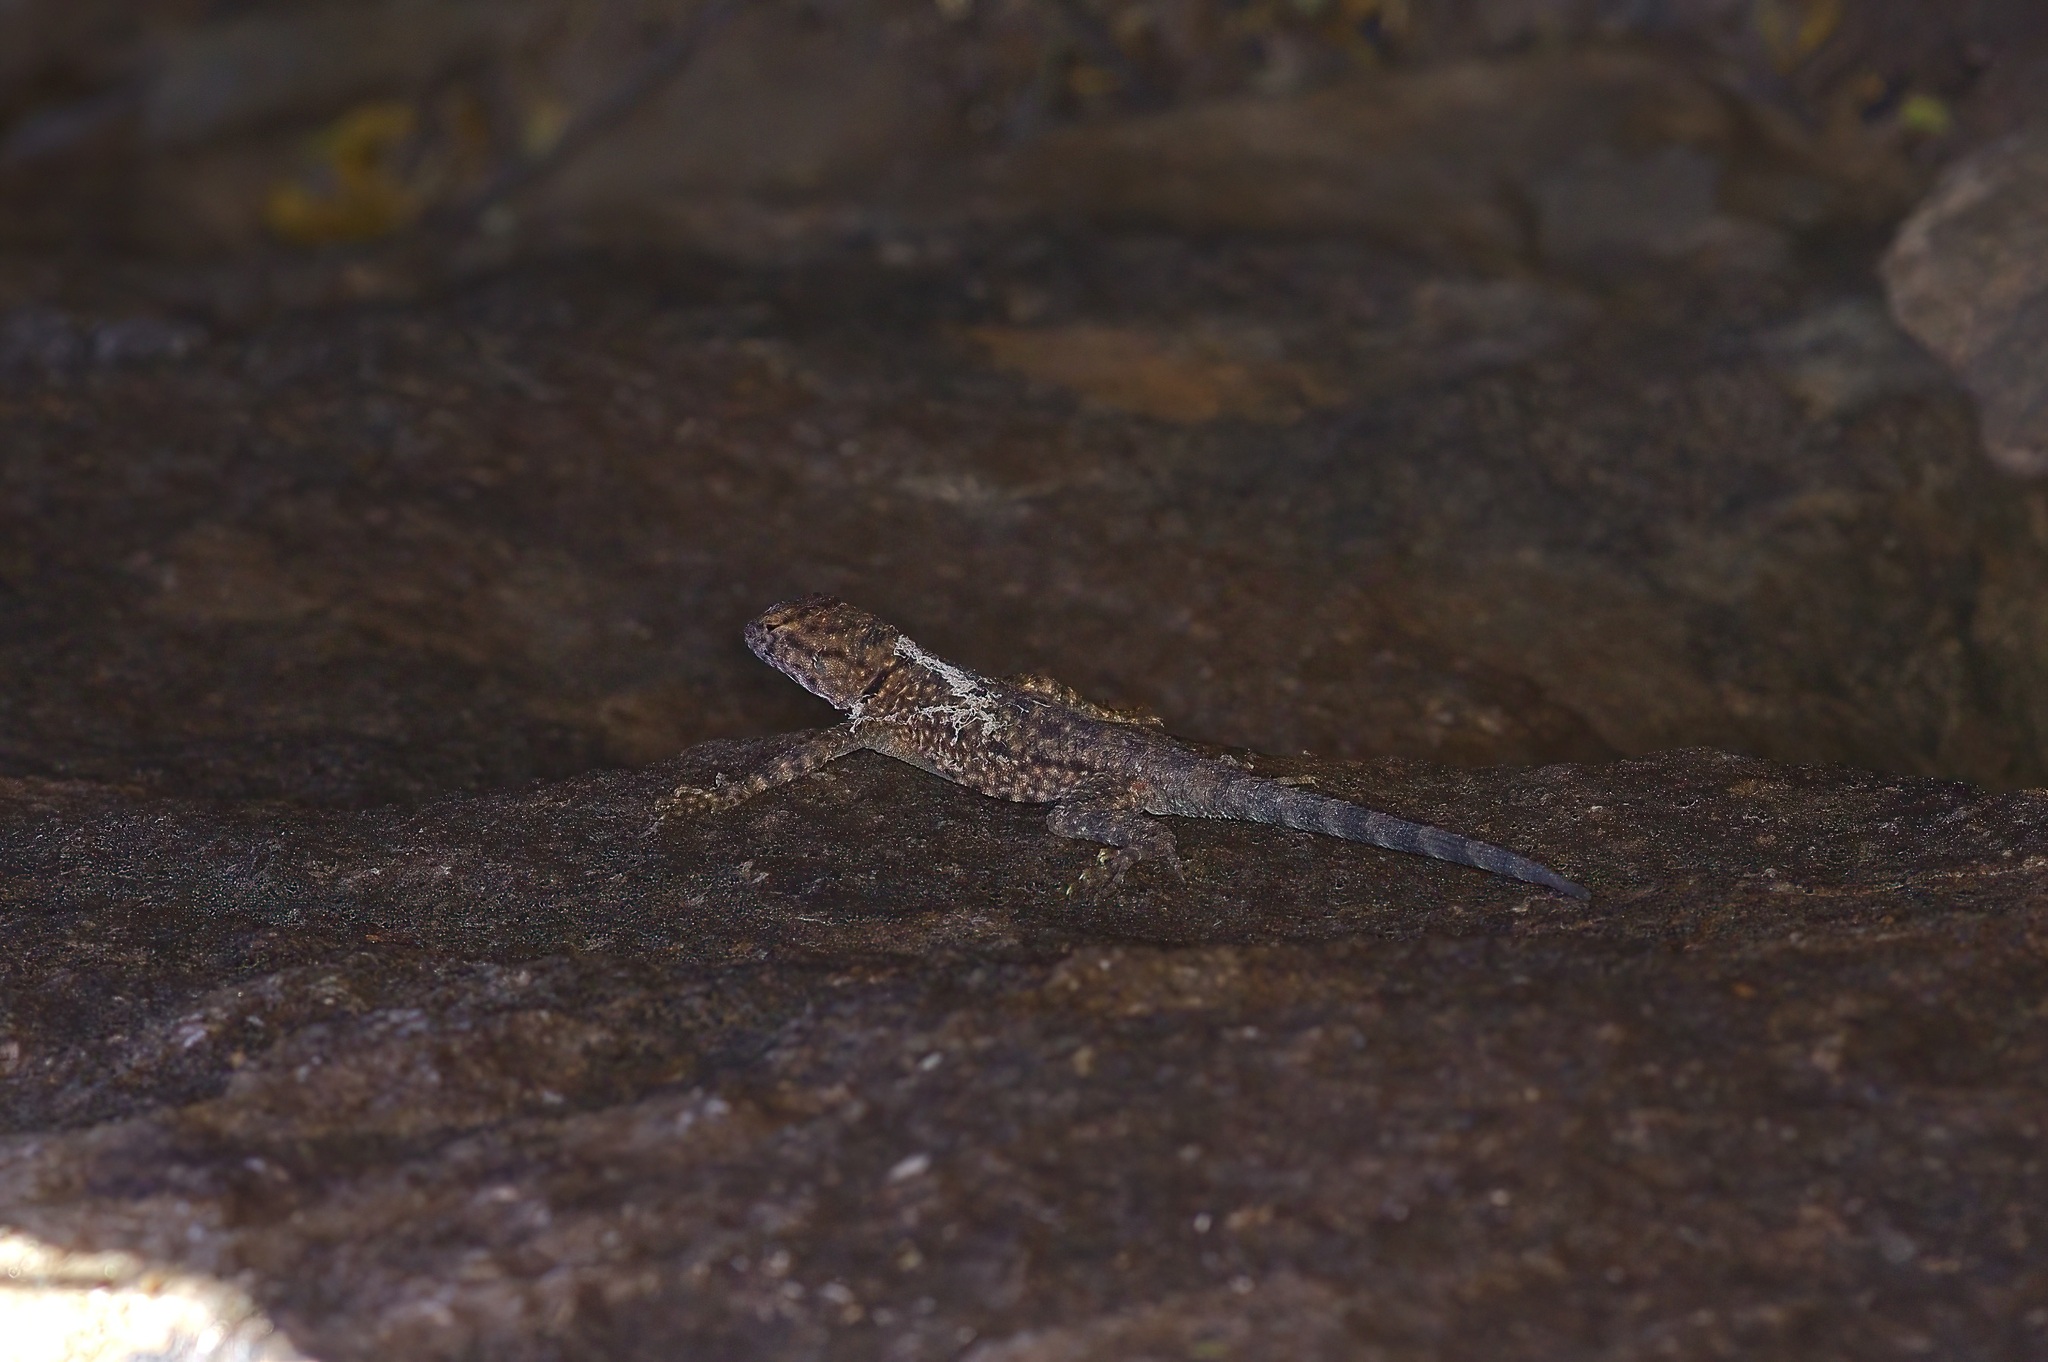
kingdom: Animalia
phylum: Chordata
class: Squamata
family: Phrynosomatidae
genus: Sceloporus
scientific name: Sceloporus merriami
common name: Canyon lizard
